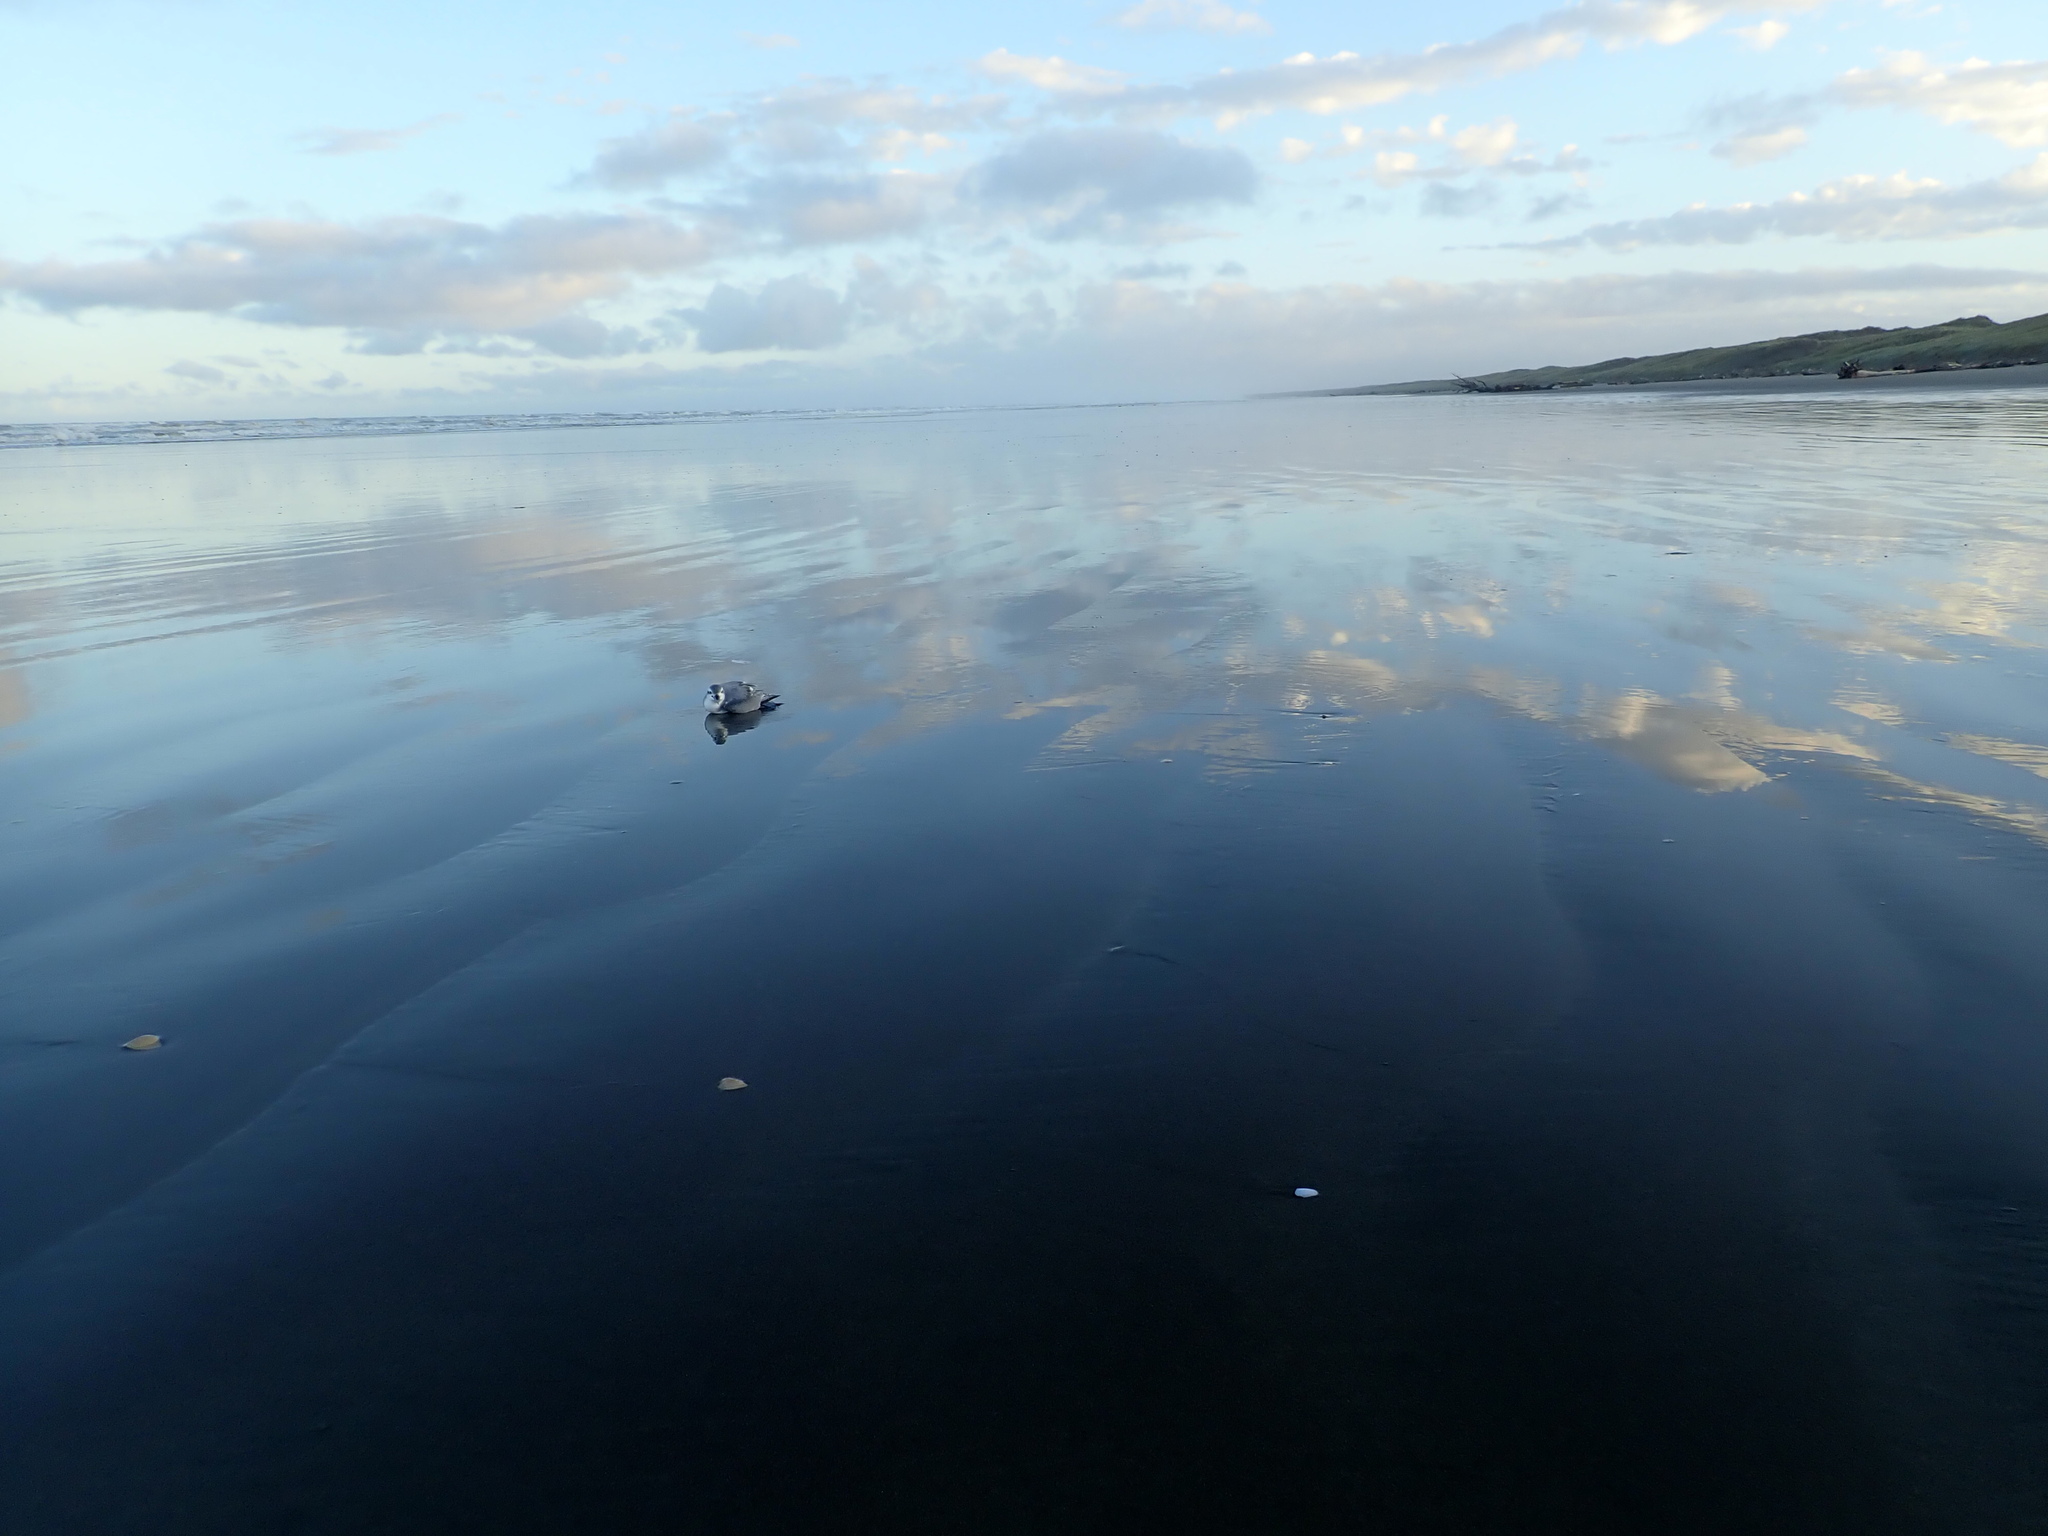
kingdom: Animalia
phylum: Chordata
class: Aves
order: Procellariiformes
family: Procellariidae
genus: Pachyptila
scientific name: Pachyptila desolata
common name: Antarctic prion
